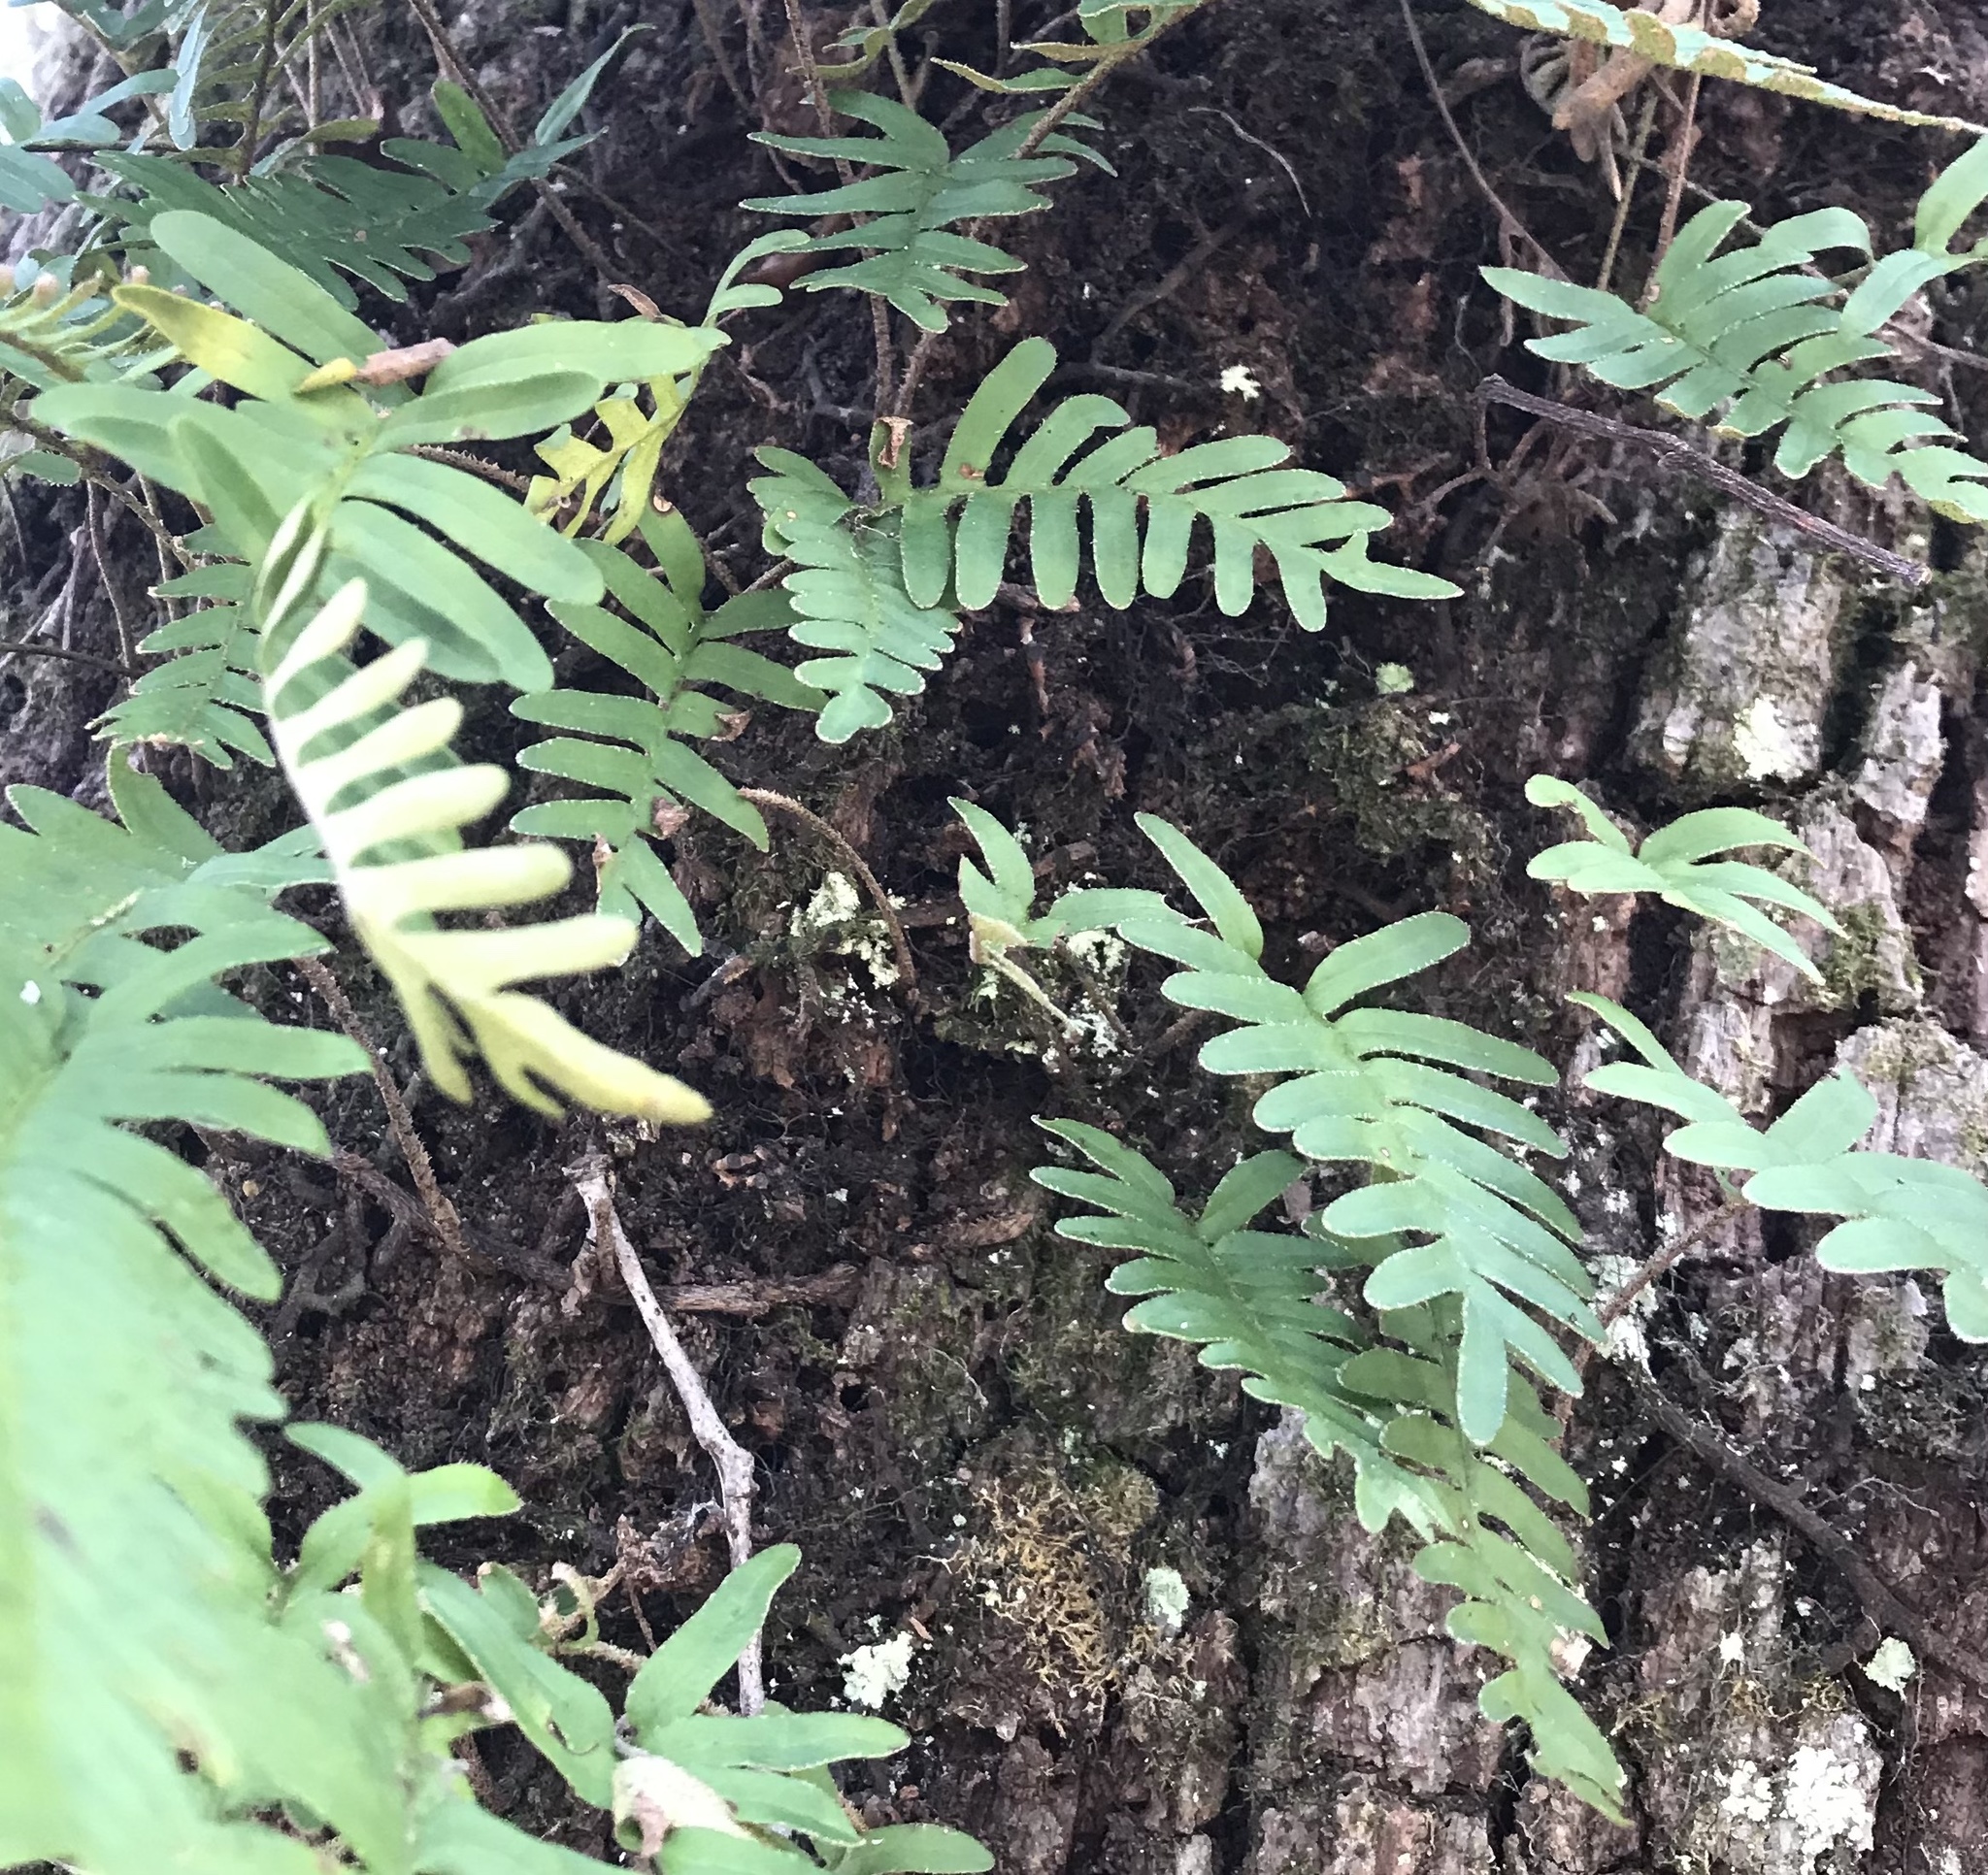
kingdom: Plantae
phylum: Tracheophyta
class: Polypodiopsida
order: Polypodiales
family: Polypodiaceae
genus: Pleopeltis
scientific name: Pleopeltis michauxiana
